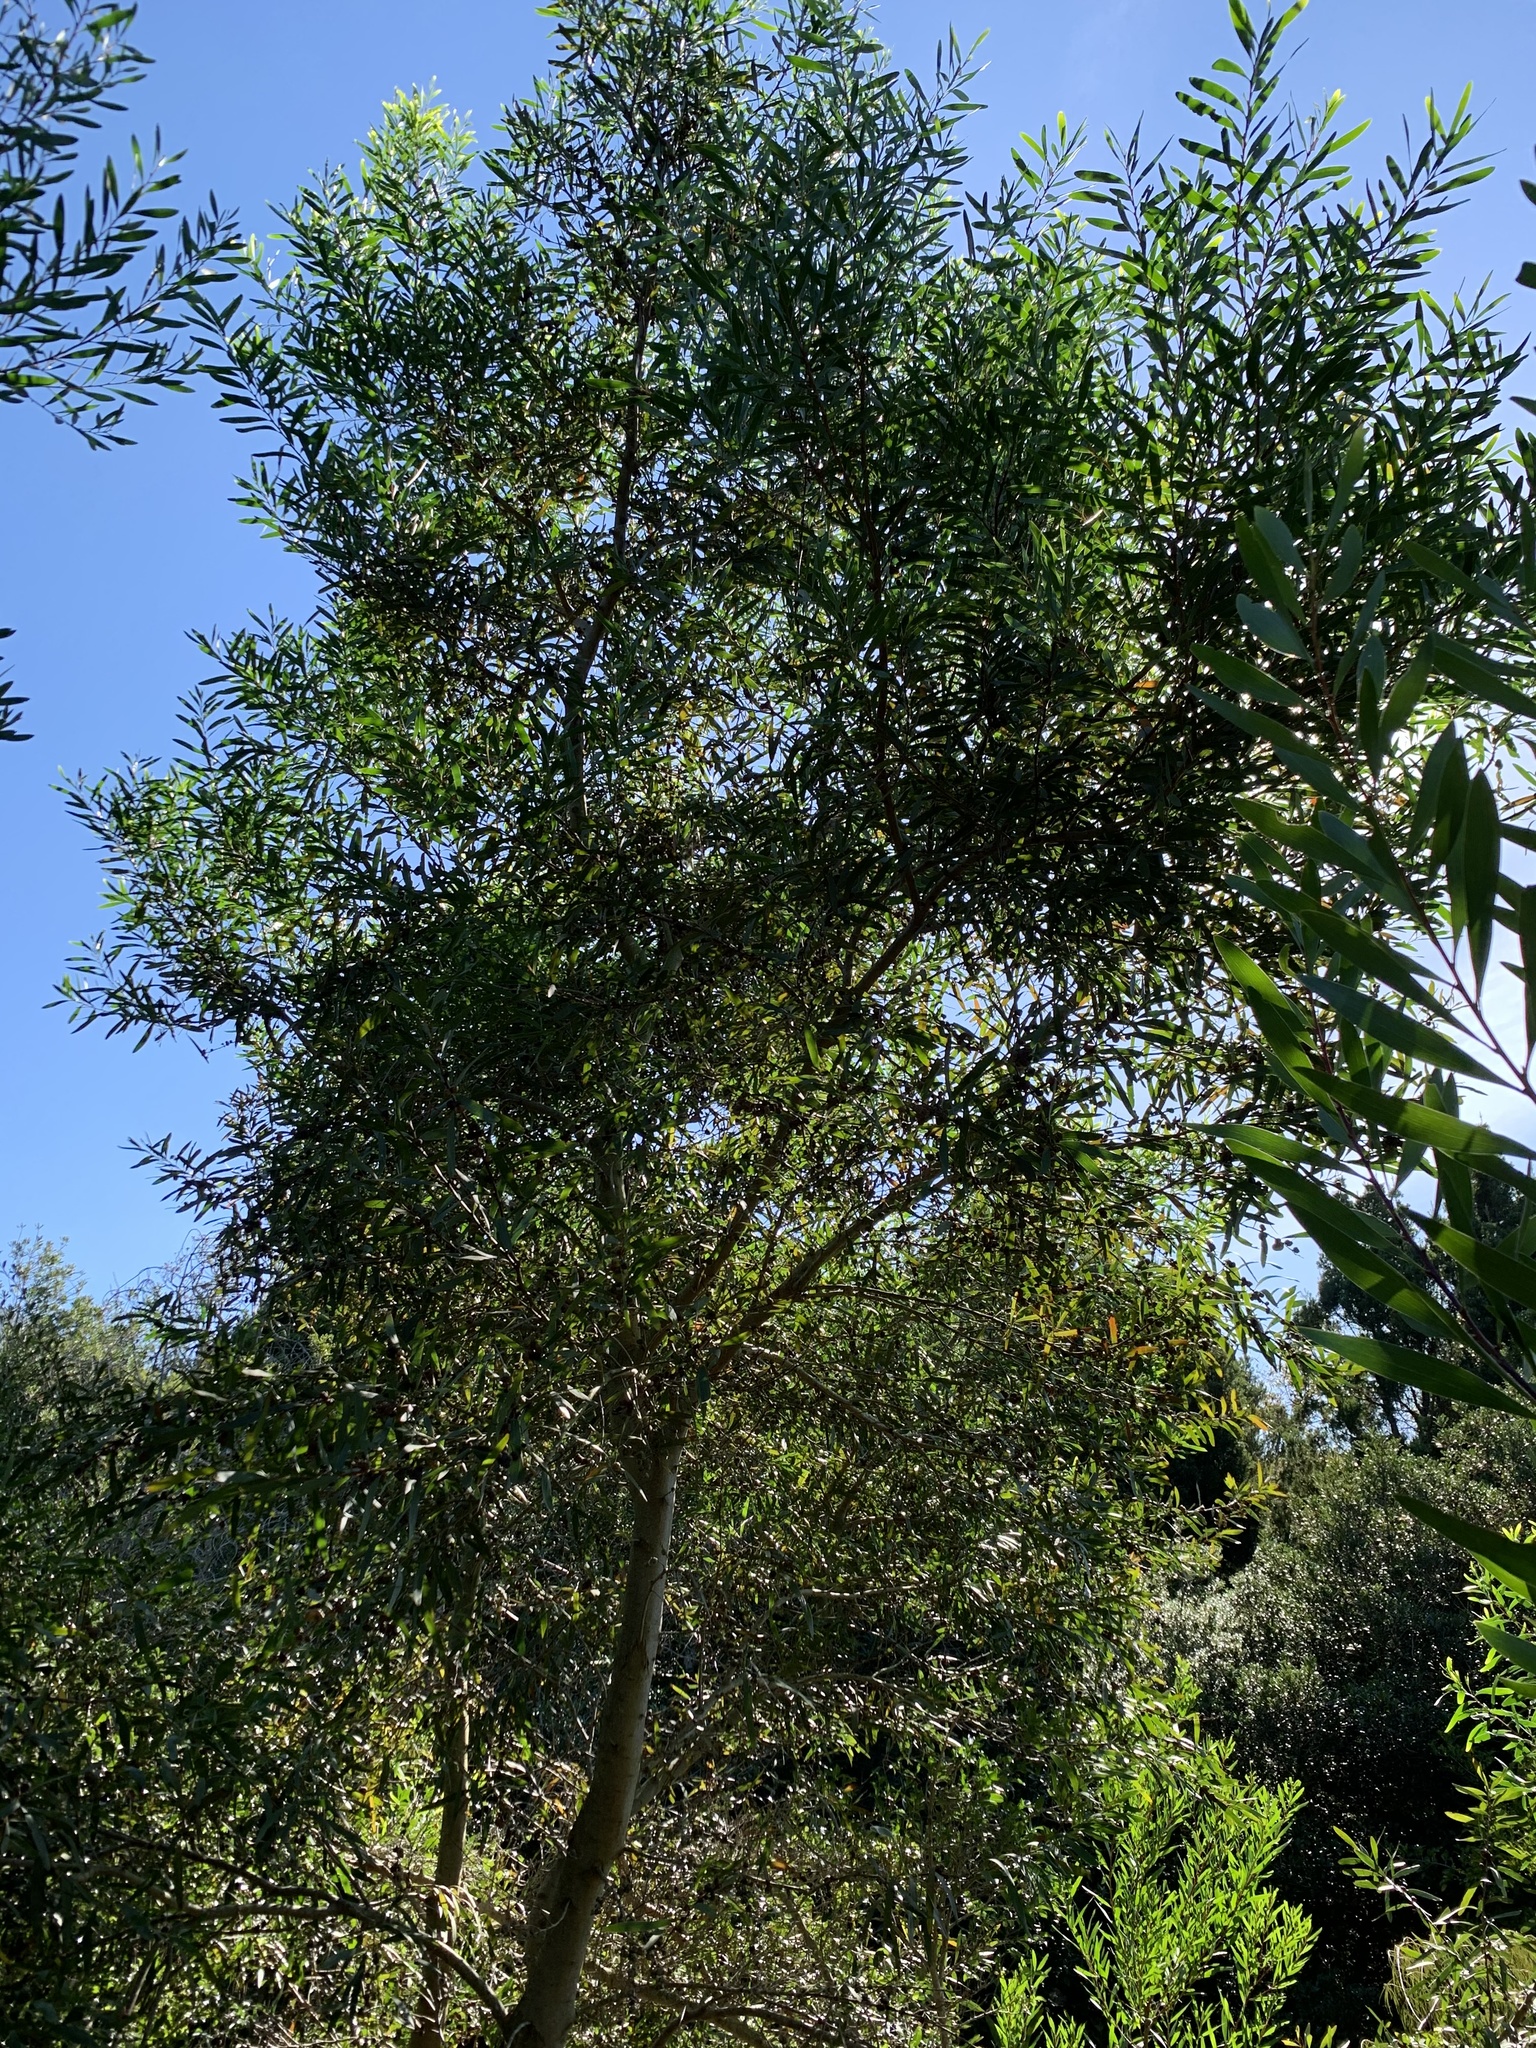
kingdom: Plantae
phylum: Tracheophyta
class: Magnoliopsida
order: Fabales
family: Fabaceae
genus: Acacia
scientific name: Acacia longifolia
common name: Sydney golden wattle
